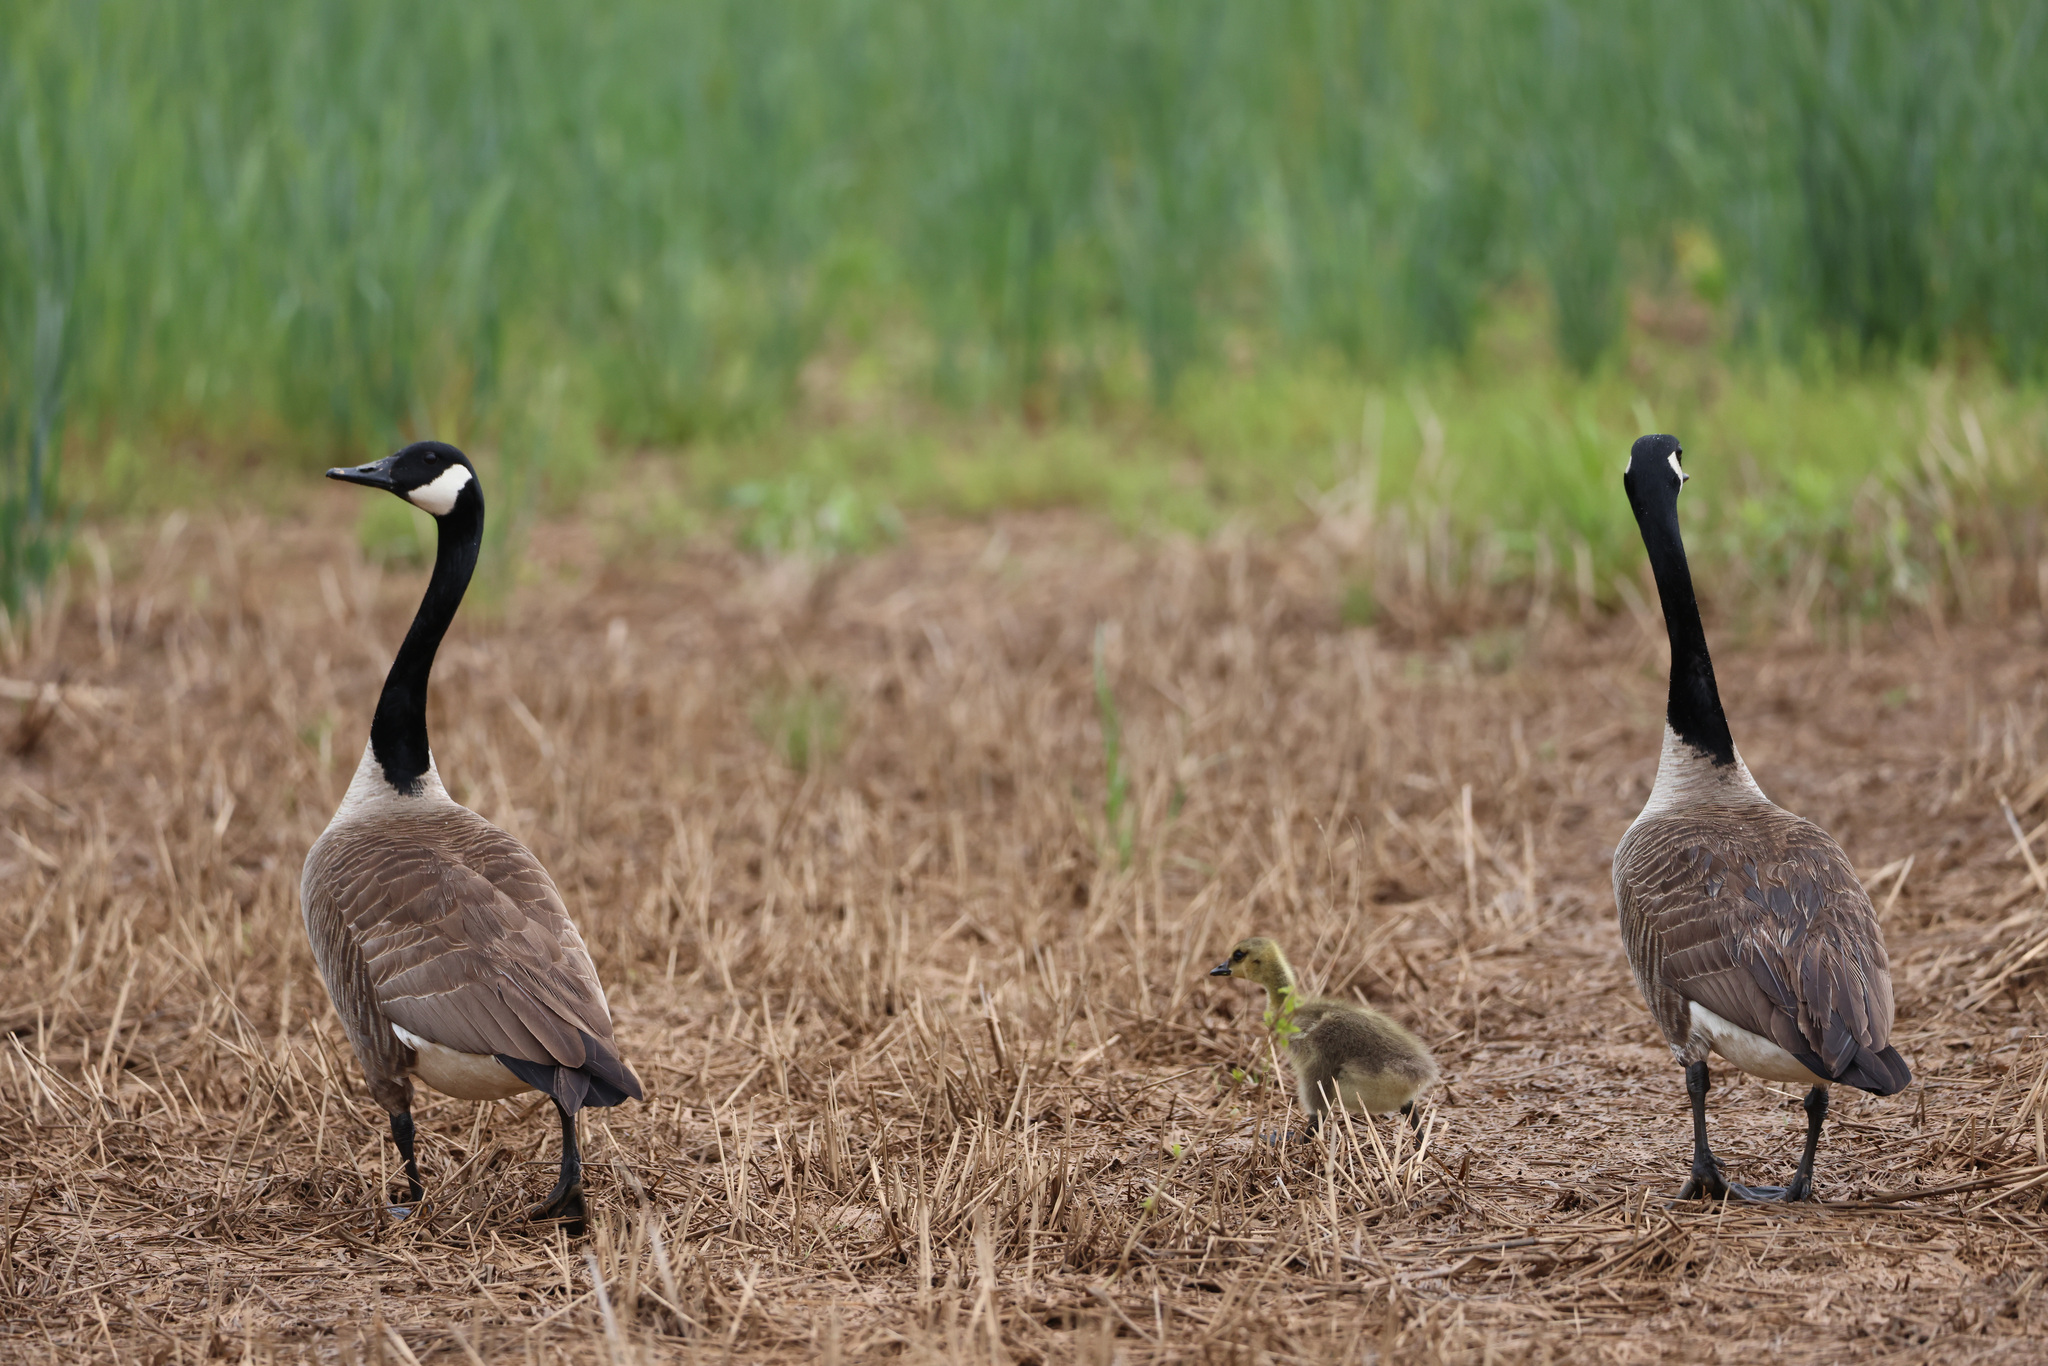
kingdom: Animalia
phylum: Chordata
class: Aves
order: Anseriformes
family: Anatidae
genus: Branta
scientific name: Branta canadensis
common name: Canada goose
